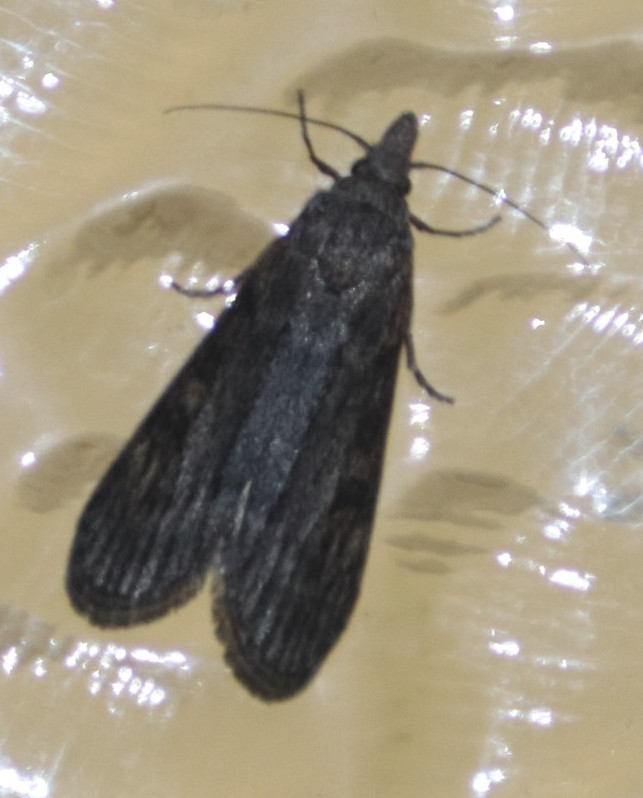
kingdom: Animalia
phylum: Arthropoda
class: Insecta
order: Lepidoptera
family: Pyralidae
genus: Lamoria
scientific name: Lamoria imbella
